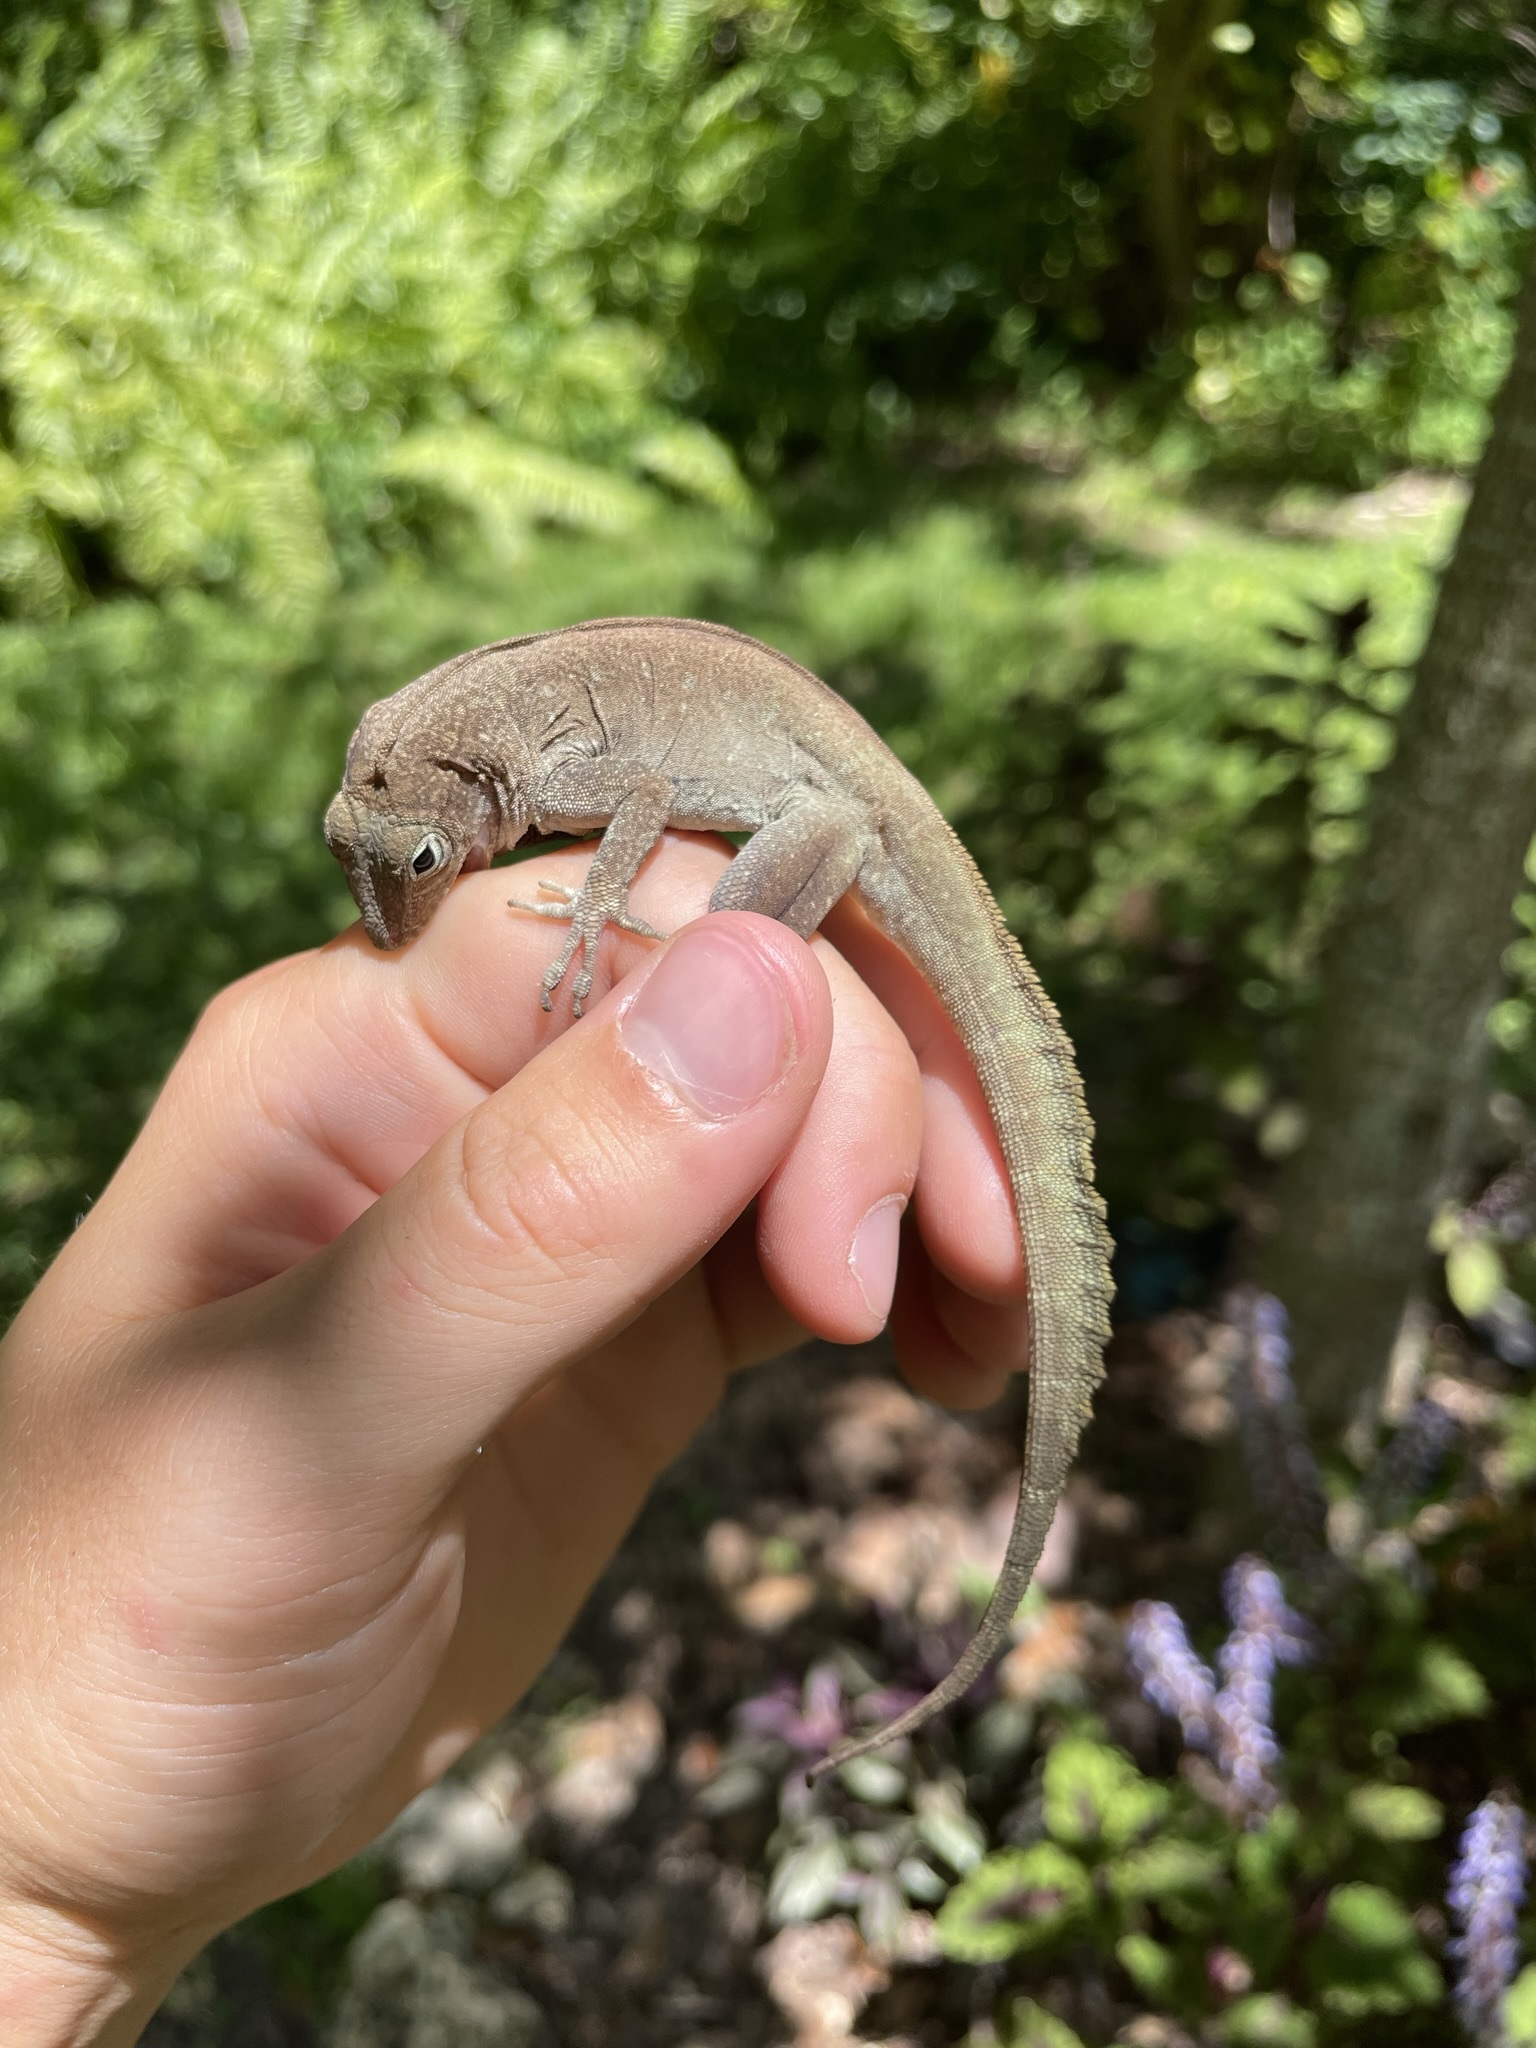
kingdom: Animalia
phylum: Chordata
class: Squamata
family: Dactyloidae
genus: Anolis
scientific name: Anolis cristatellus
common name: Crested anole
